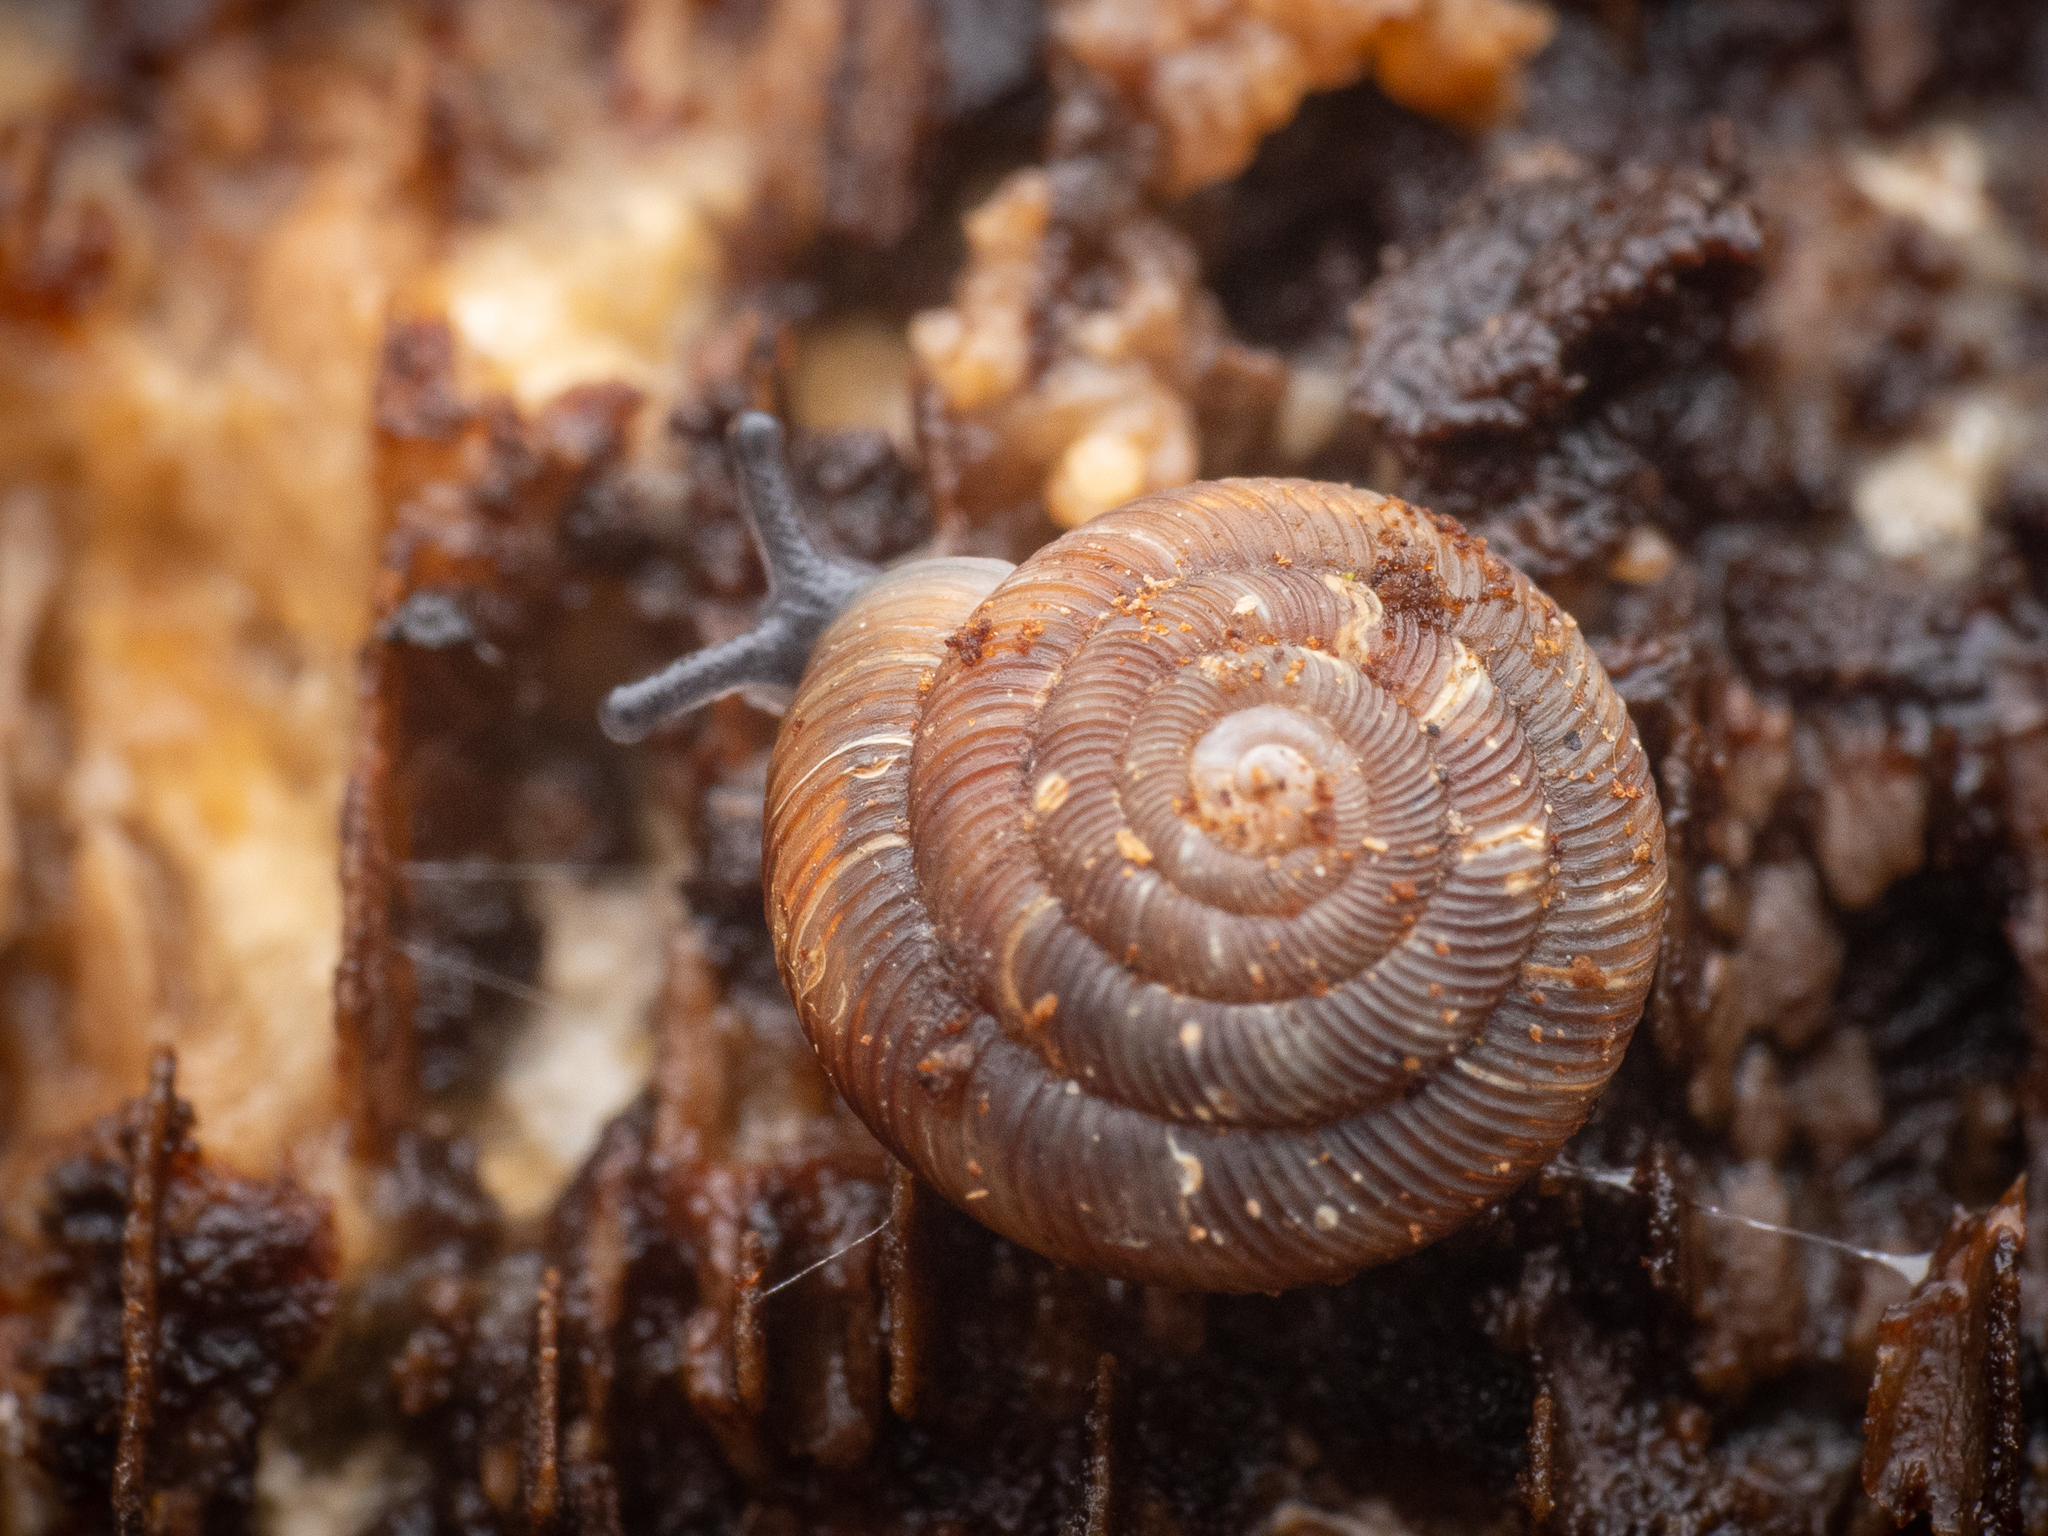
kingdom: Animalia
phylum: Mollusca
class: Gastropoda
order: Stylommatophora
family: Discidae
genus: Discus
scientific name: Discus rotundatus
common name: Rounded snail
